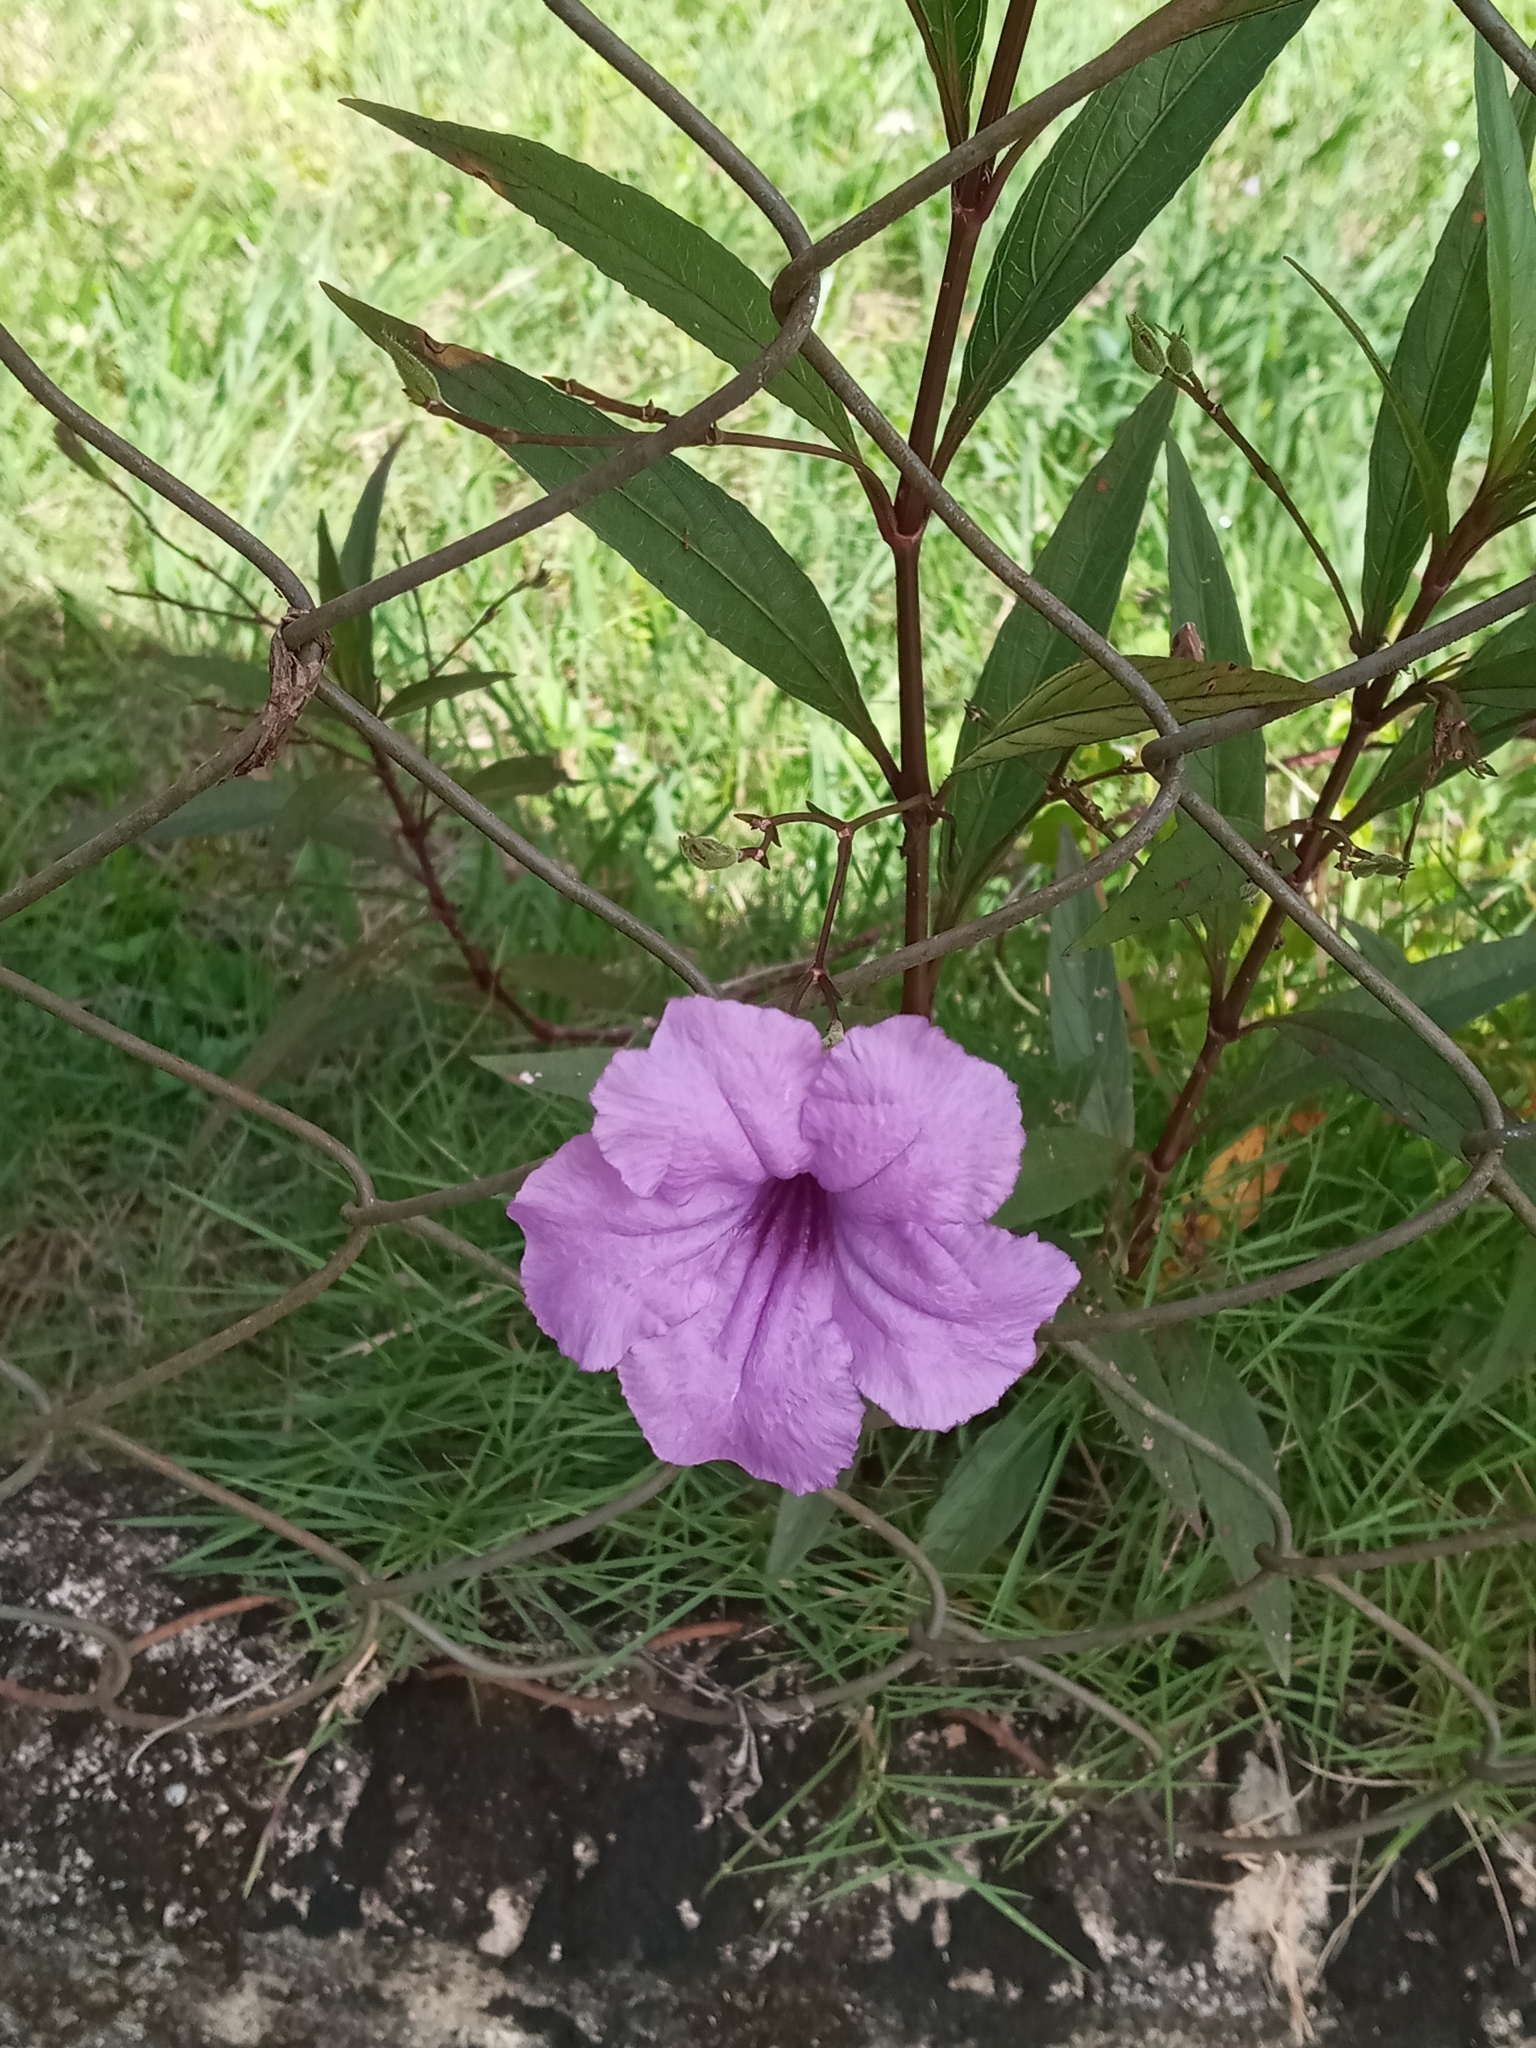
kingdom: Plantae
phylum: Tracheophyta
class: Magnoliopsida
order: Lamiales
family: Acanthaceae
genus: Ruellia
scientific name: Ruellia simplex
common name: Softseed wild petunia
